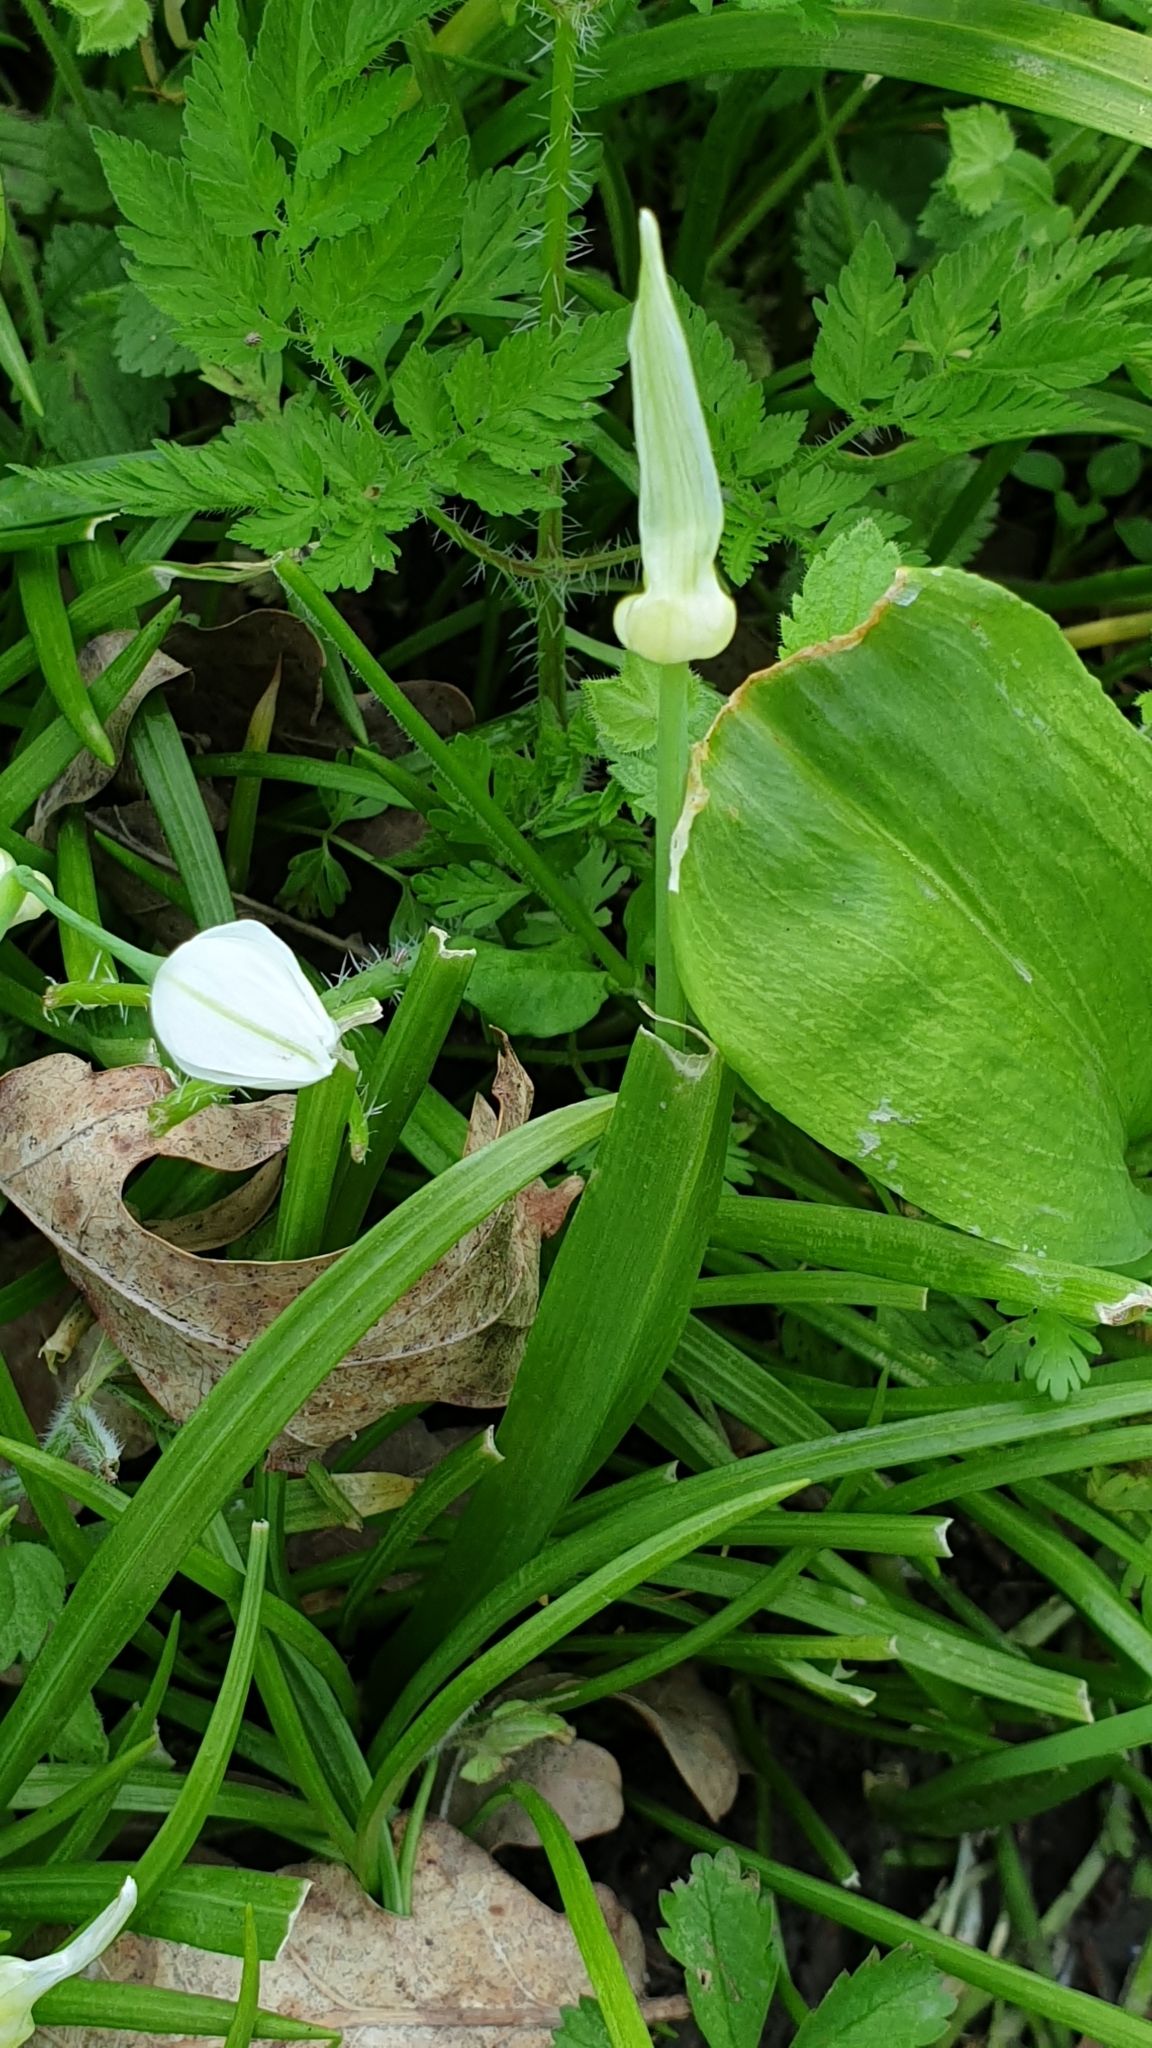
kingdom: Plantae
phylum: Tracheophyta
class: Liliopsida
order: Asparagales
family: Amaryllidaceae
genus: Allium
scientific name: Allium paradoxum
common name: Few-flowered garlic
